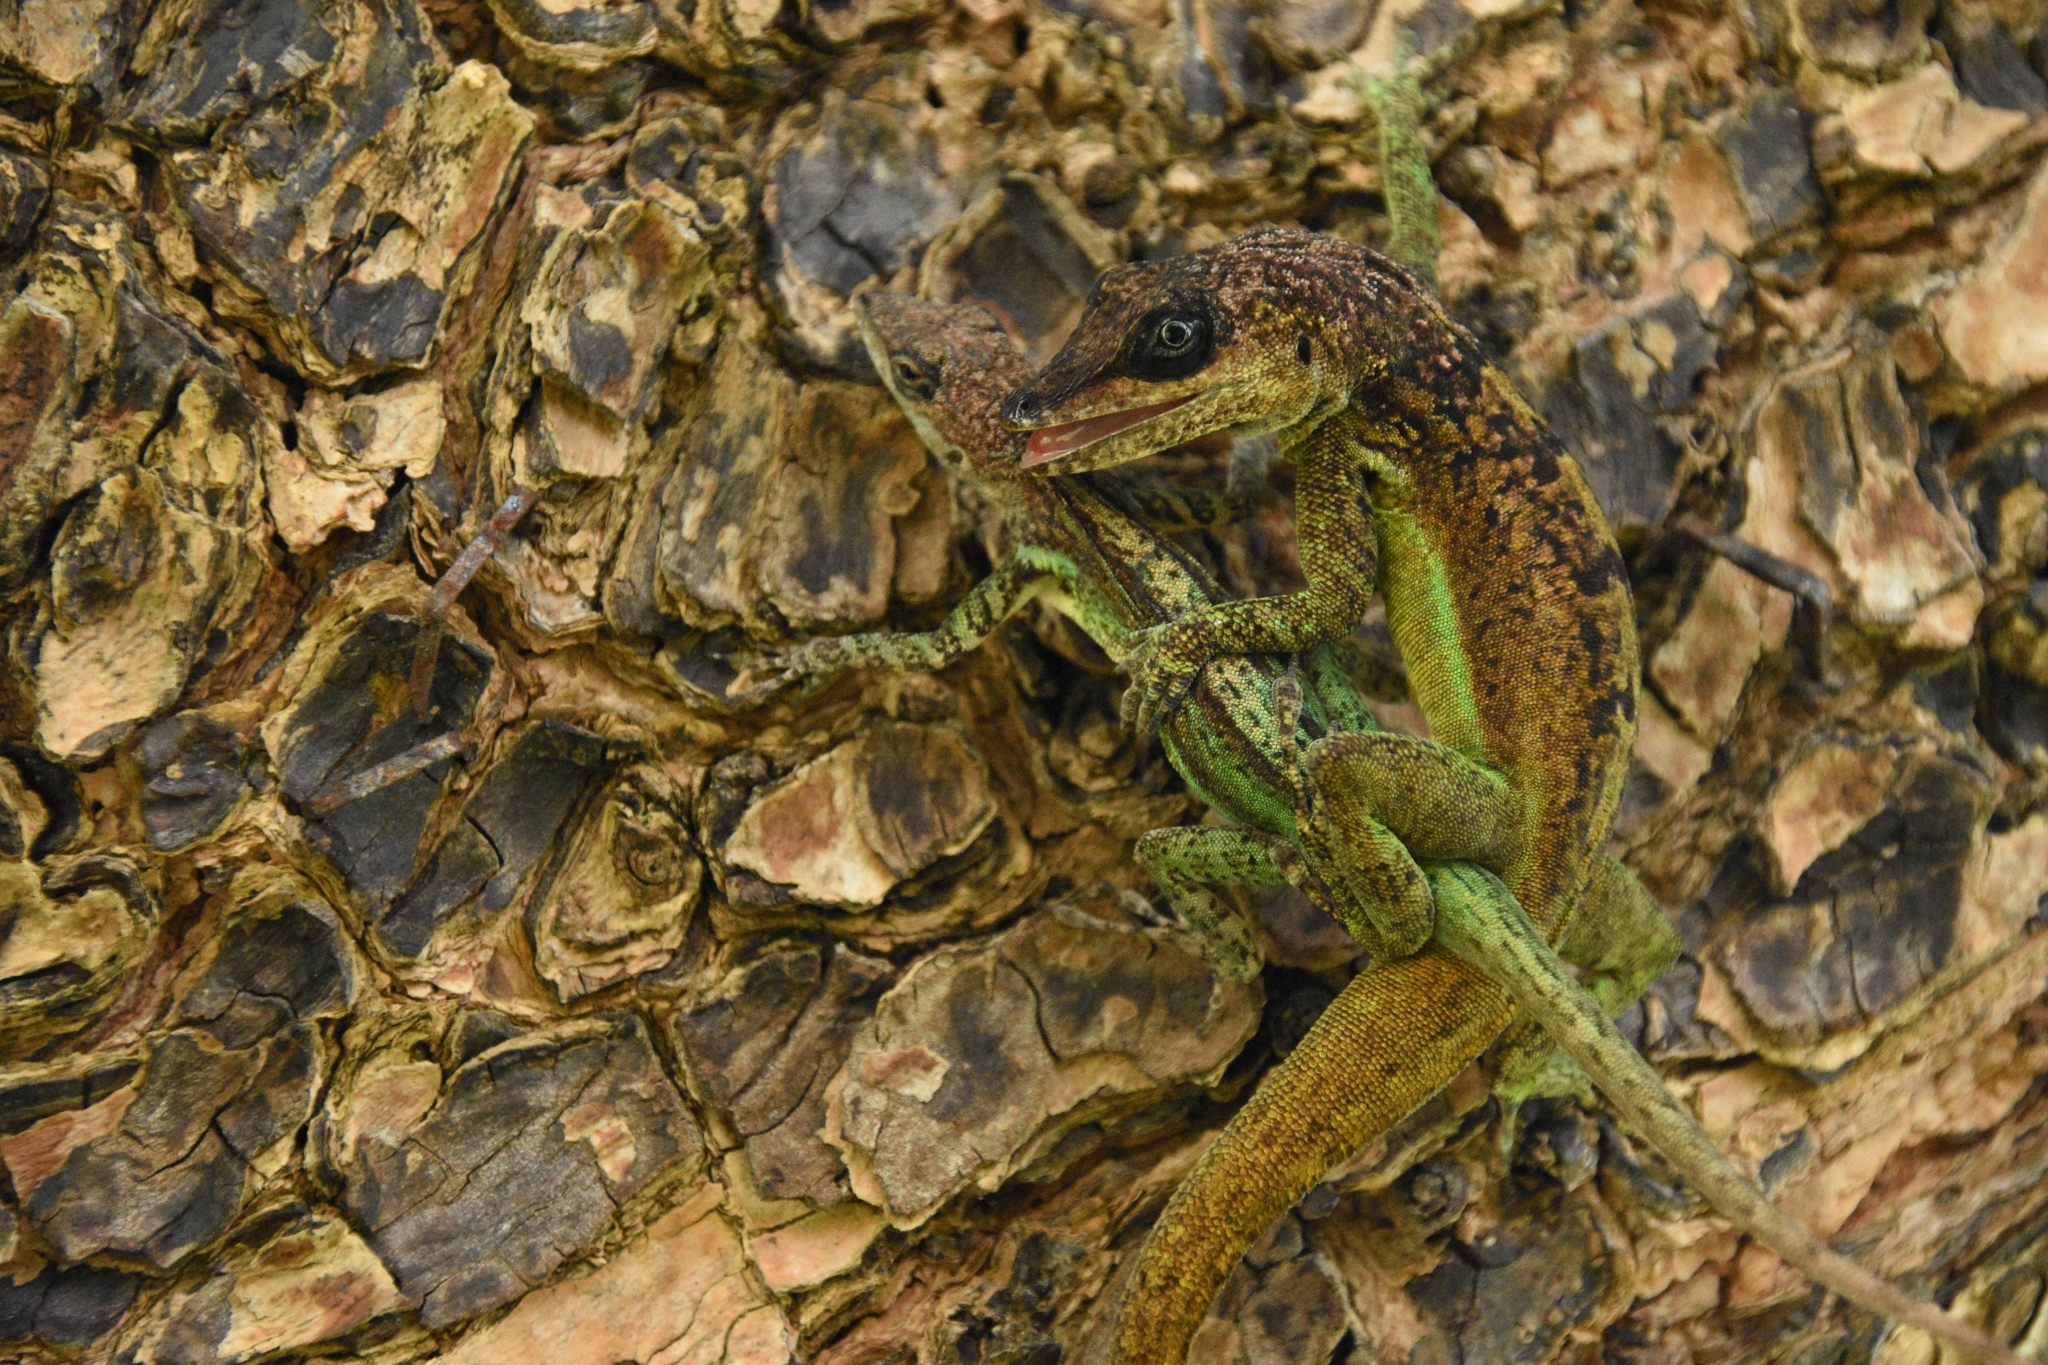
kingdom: Animalia
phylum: Chordata
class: Squamata
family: Dactyloidae
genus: Anolis
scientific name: Anolis extremus
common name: Barbados anole
